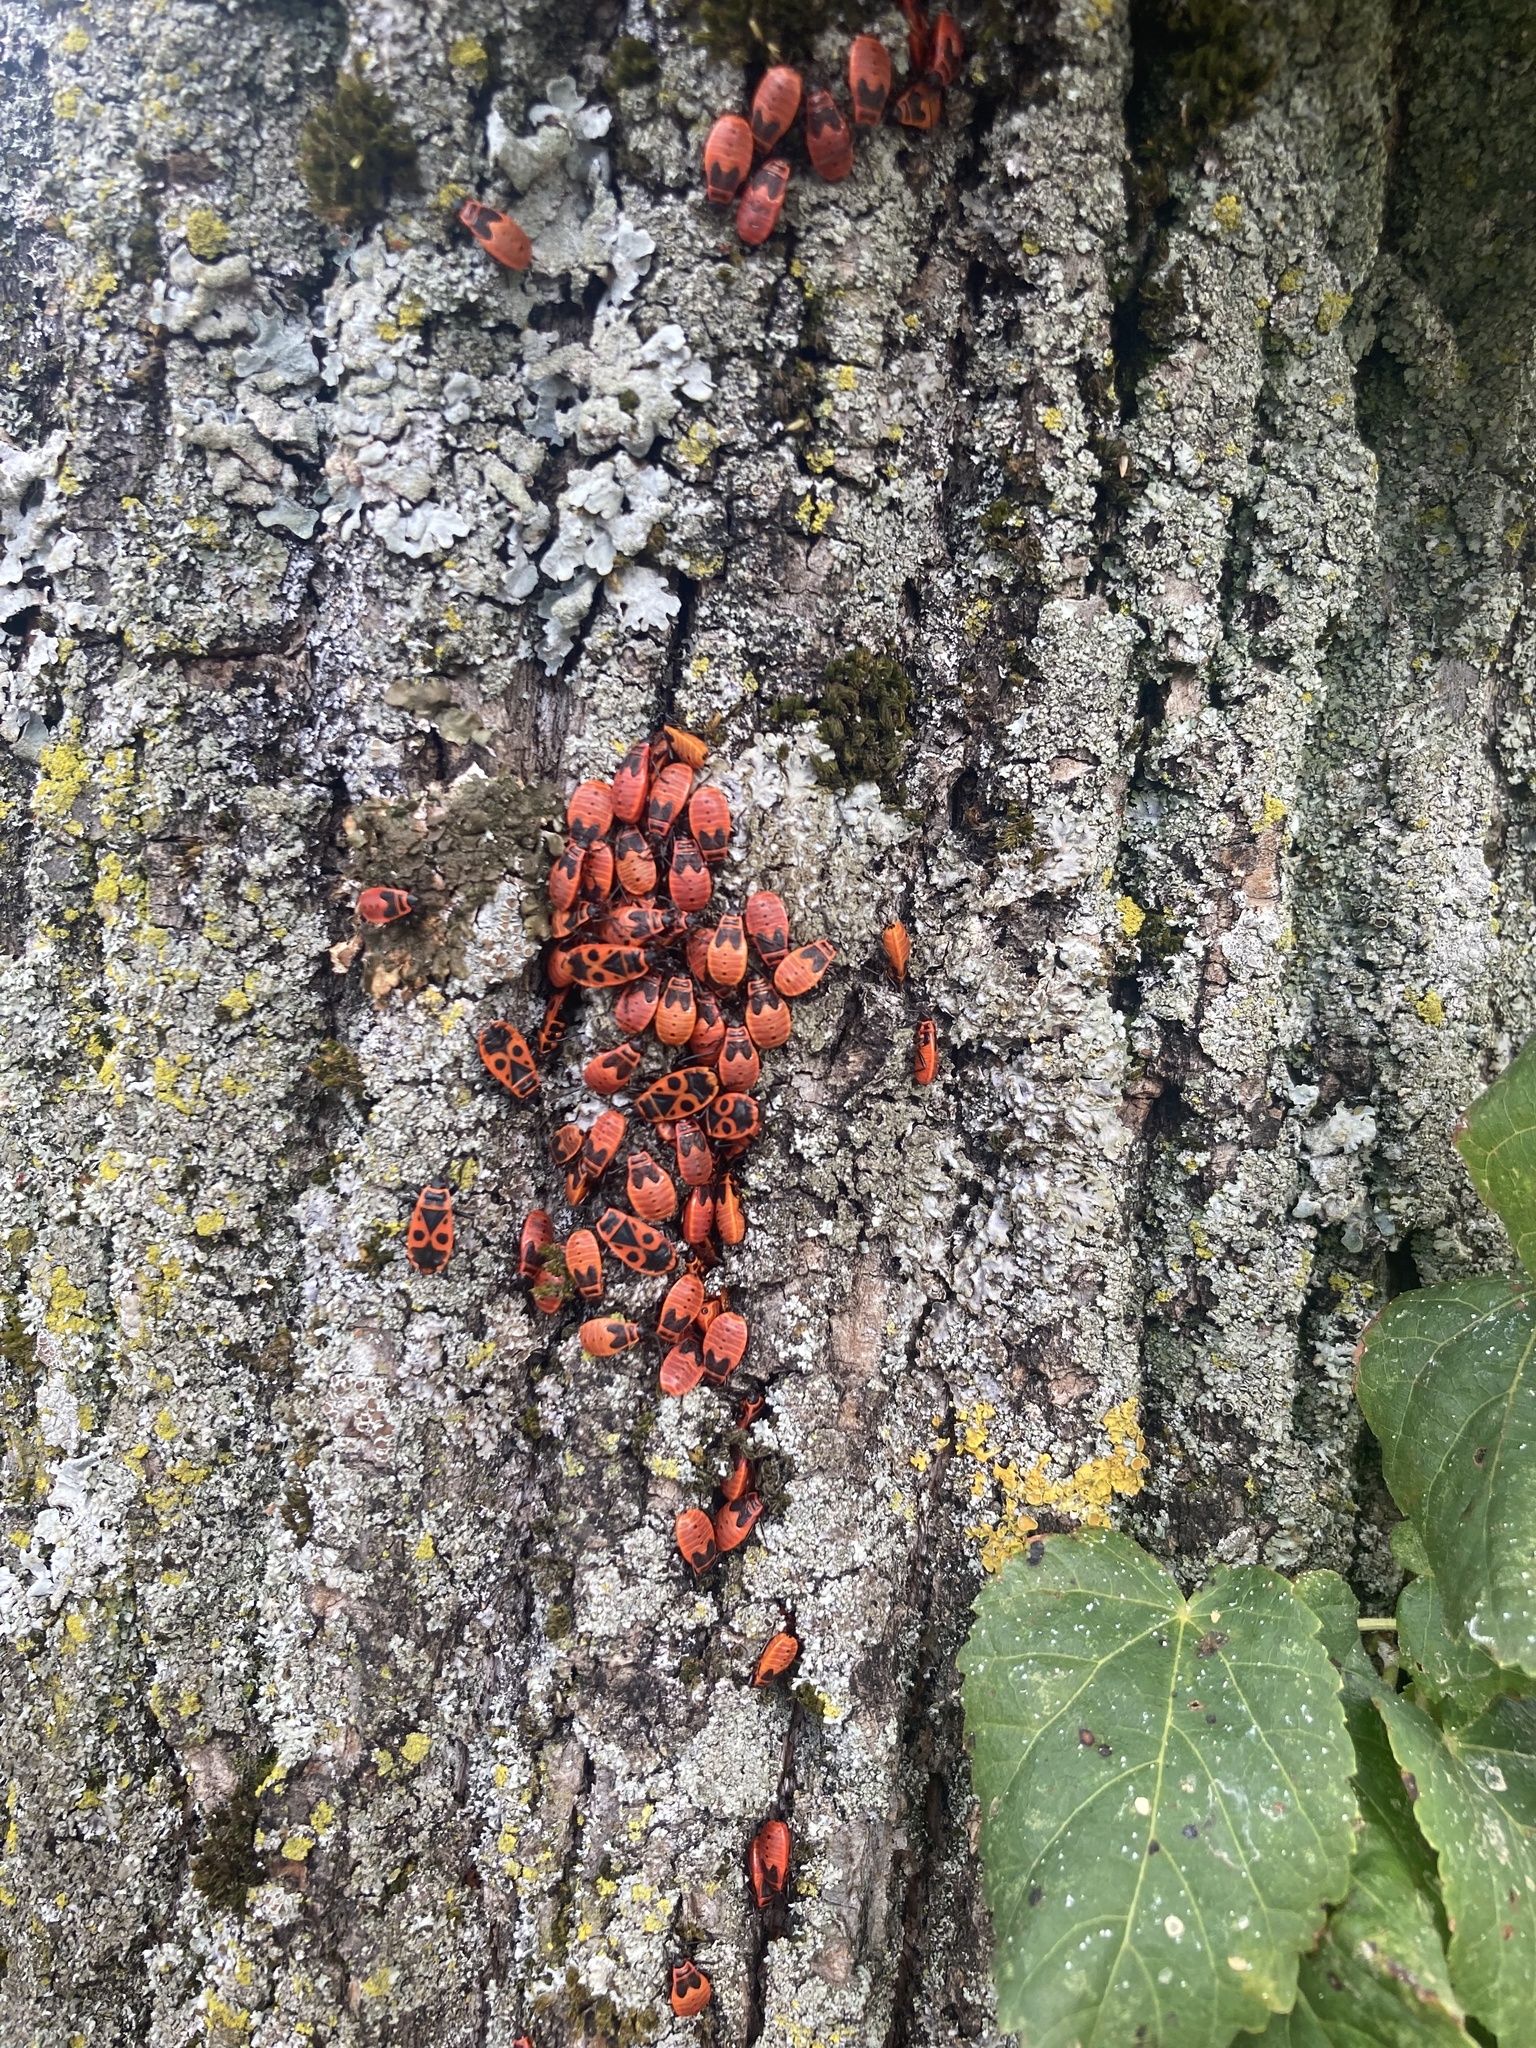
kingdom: Animalia
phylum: Arthropoda
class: Insecta
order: Hemiptera
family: Pyrrhocoridae
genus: Pyrrhocoris
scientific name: Pyrrhocoris apterus
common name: Firebug
